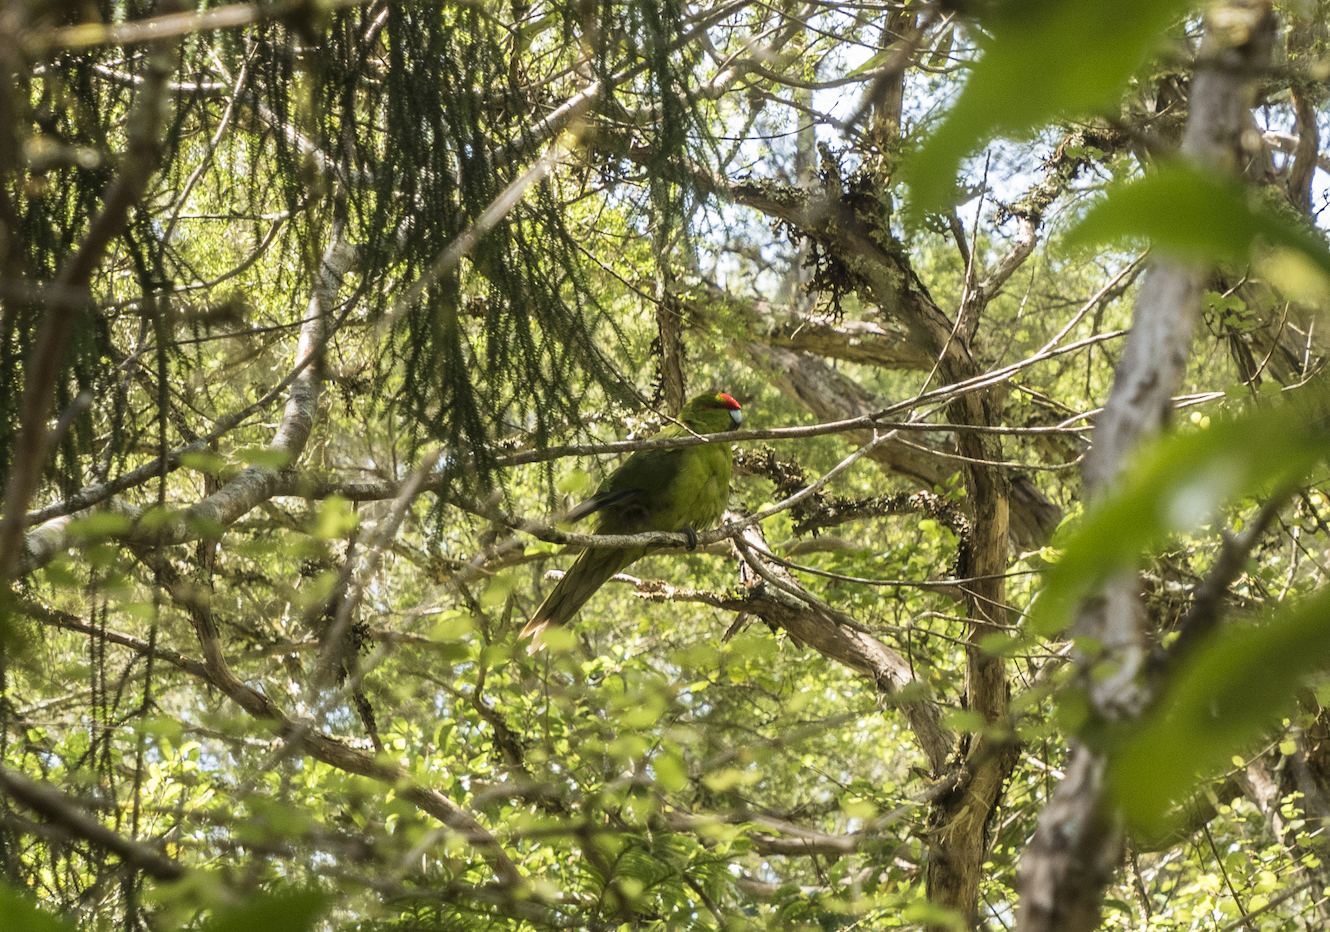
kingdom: Animalia
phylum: Chordata
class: Aves
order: Psittaciformes
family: Psittacidae
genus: Cyanoramphus
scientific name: Cyanoramphus novaezelandiae
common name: Red-fronted parakeet
